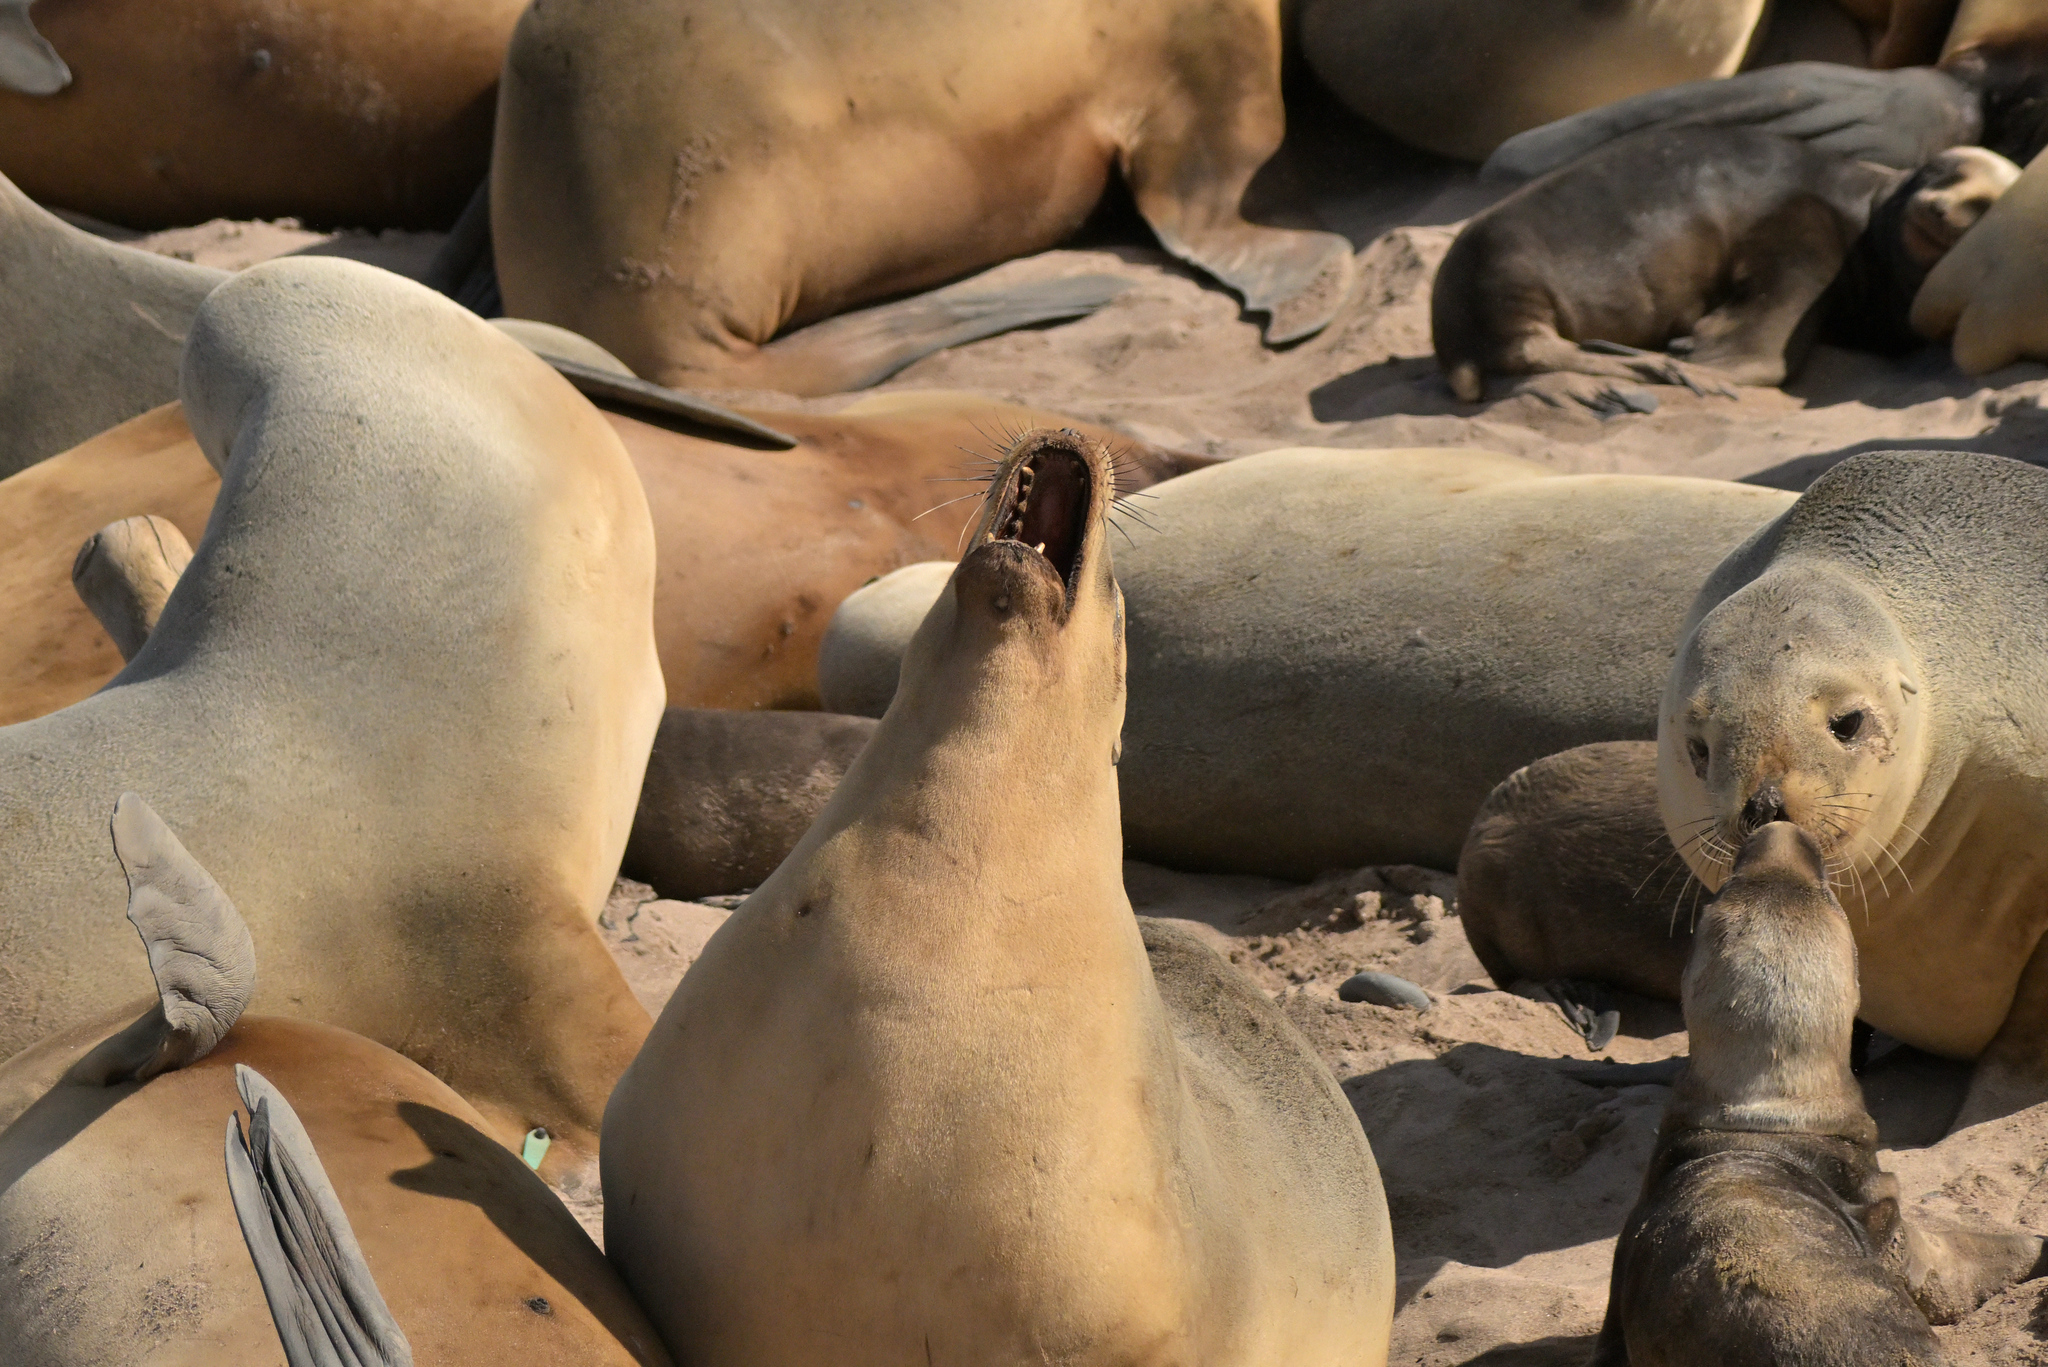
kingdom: Animalia
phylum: Chordata
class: Mammalia
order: Carnivora
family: Otariidae
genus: Phocarctos
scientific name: Phocarctos hookeri
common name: New zealand sea lion
